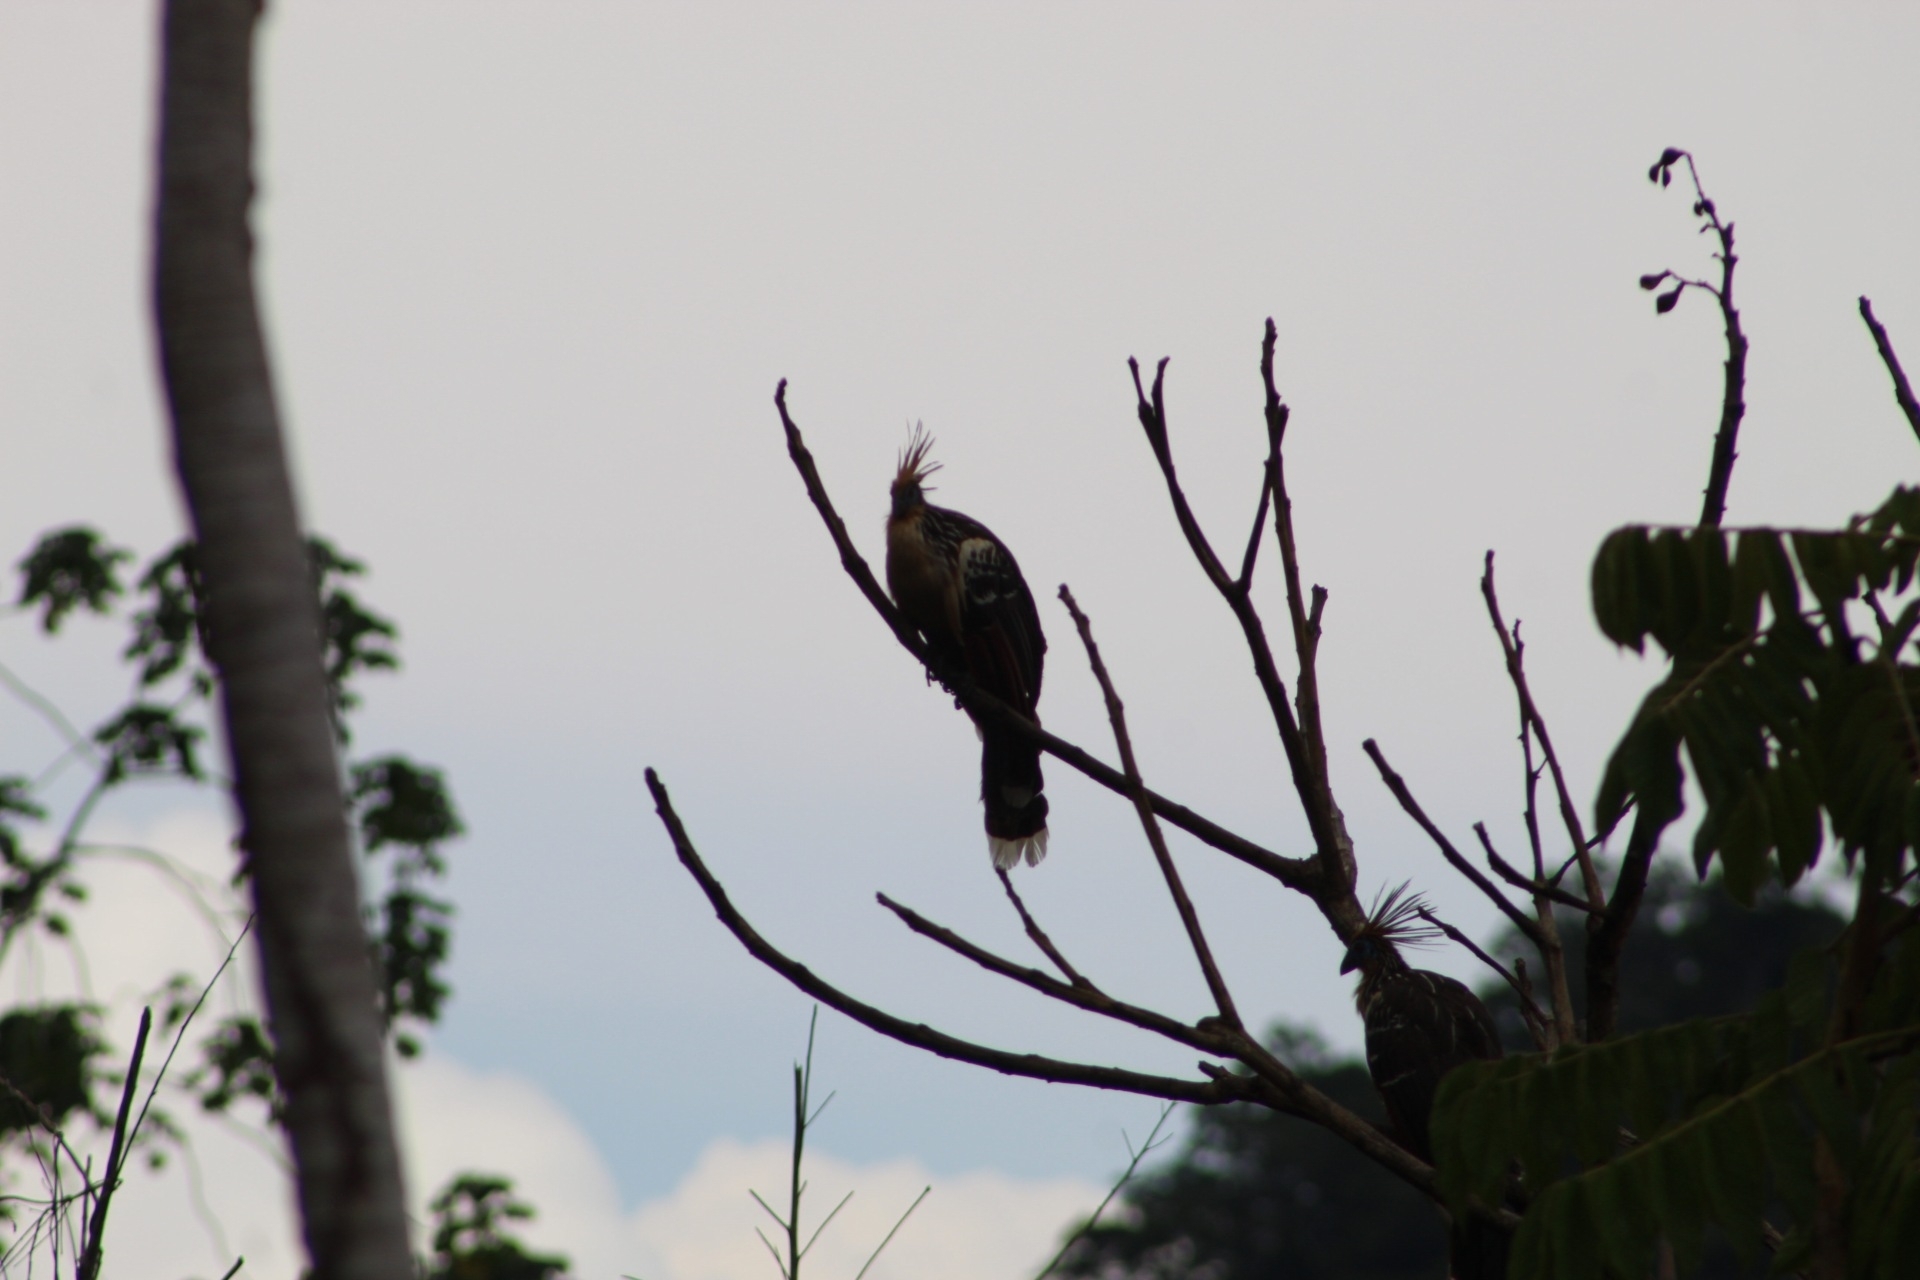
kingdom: Animalia
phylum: Chordata
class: Aves
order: Opisthocomiformes
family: Opisthocomidae
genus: Opisthocomus
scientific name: Opisthocomus hoazin
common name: Hoatzin
